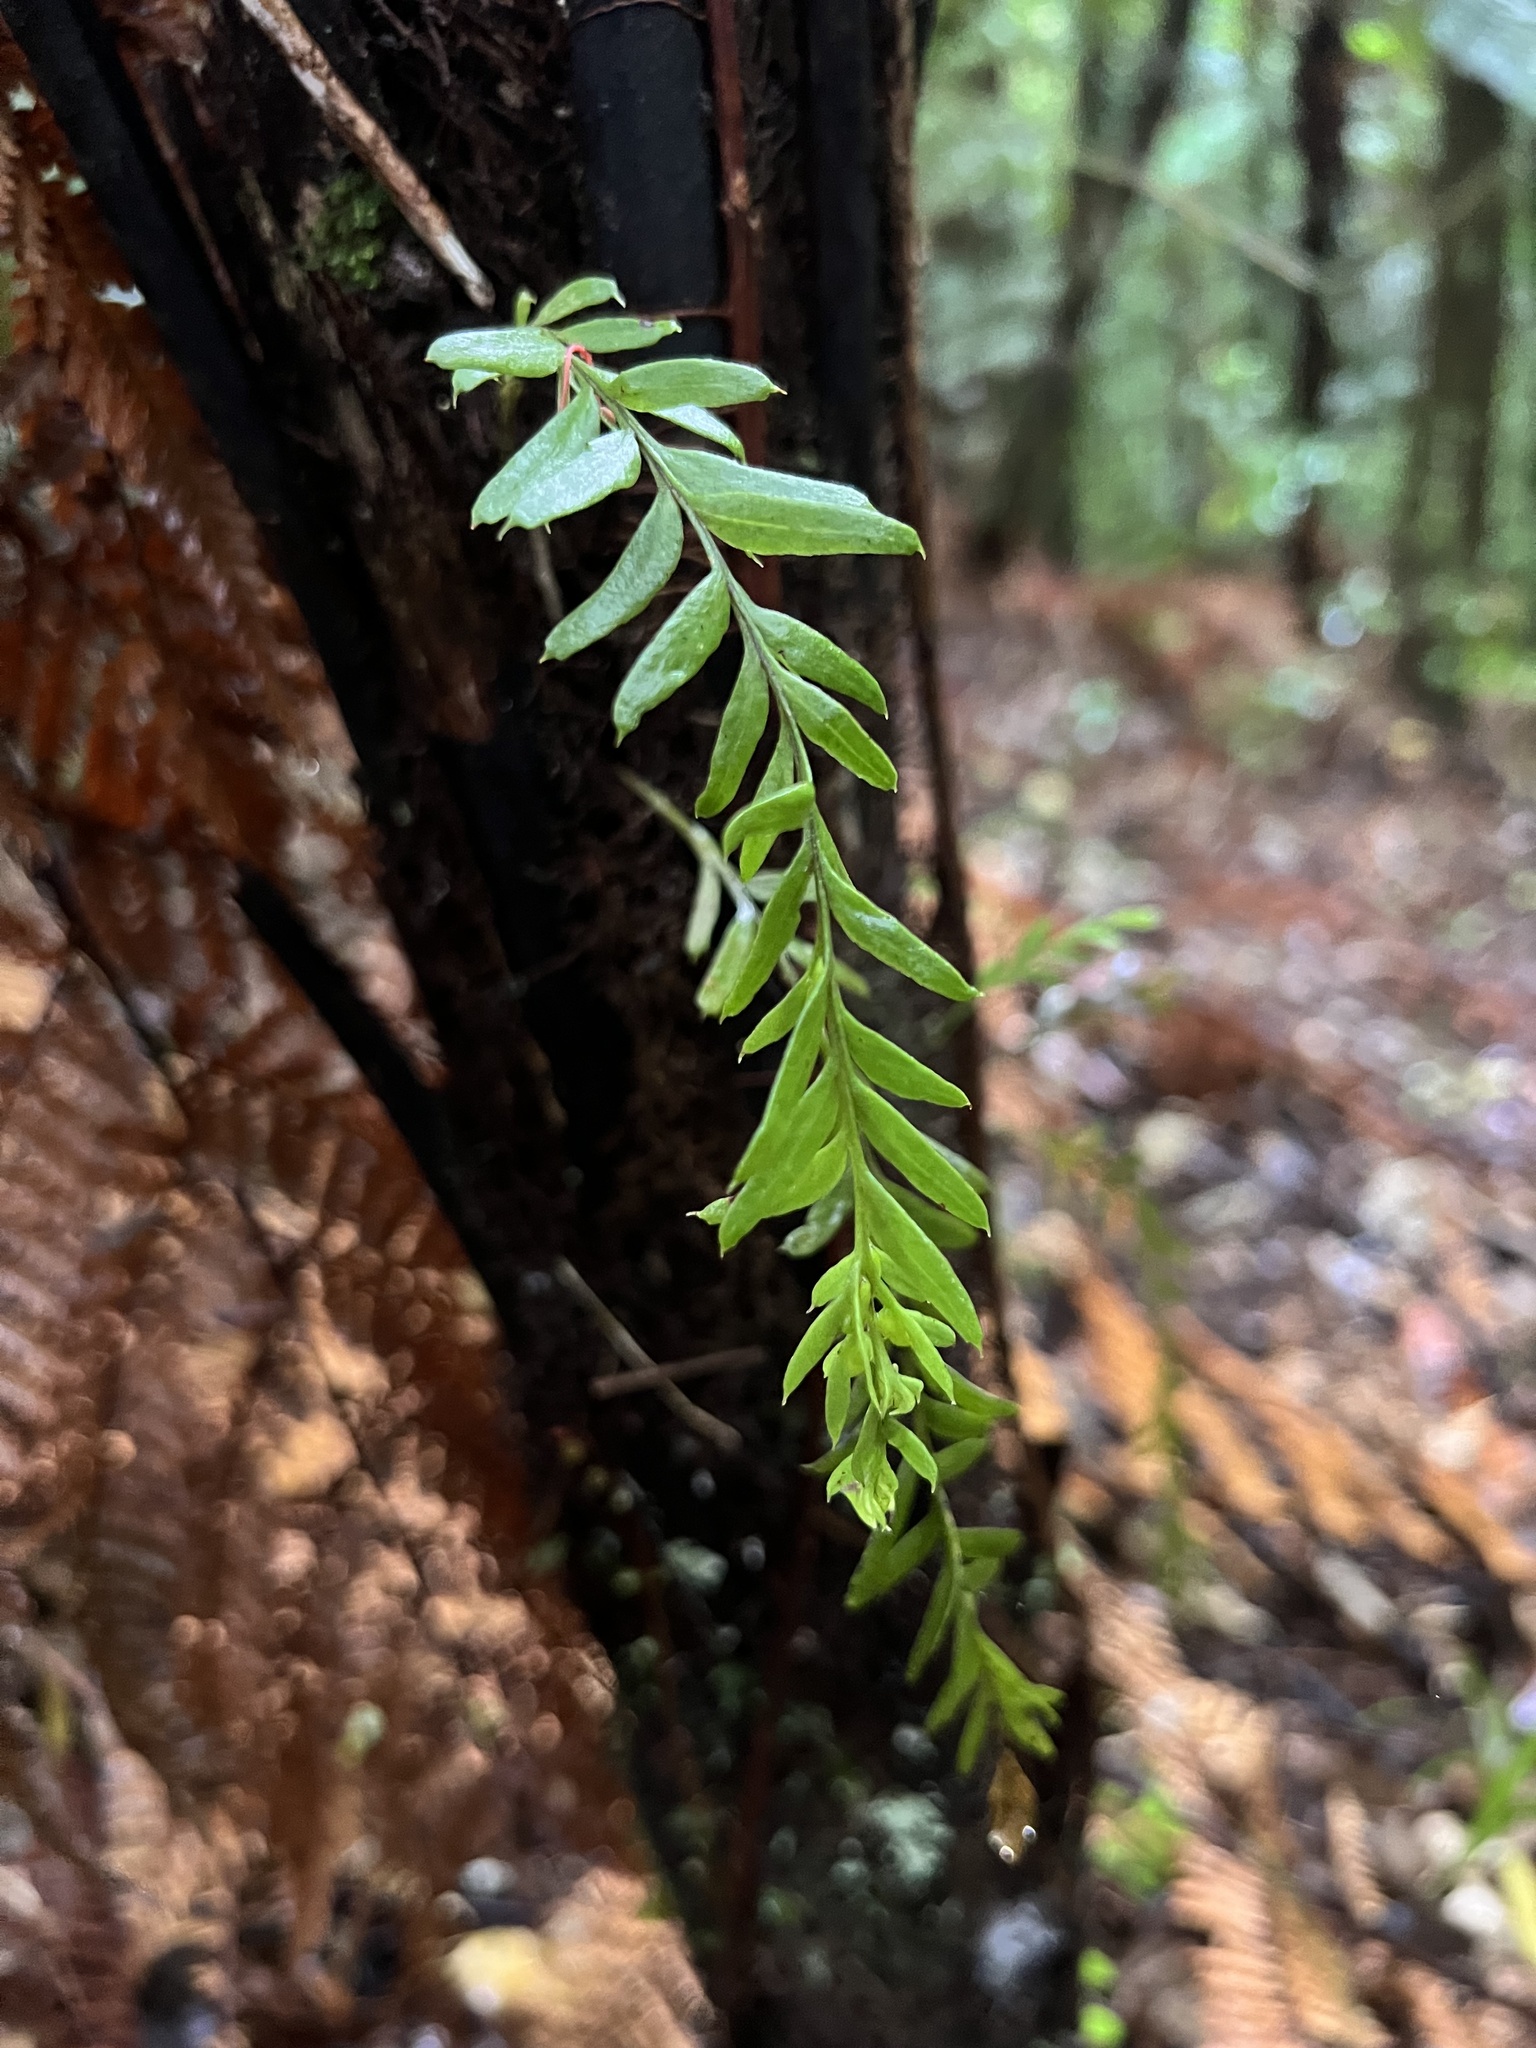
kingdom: Plantae
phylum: Tracheophyta
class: Polypodiopsida
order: Psilotales
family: Psilotaceae
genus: Tmesipteris
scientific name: Tmesipteris elongata
